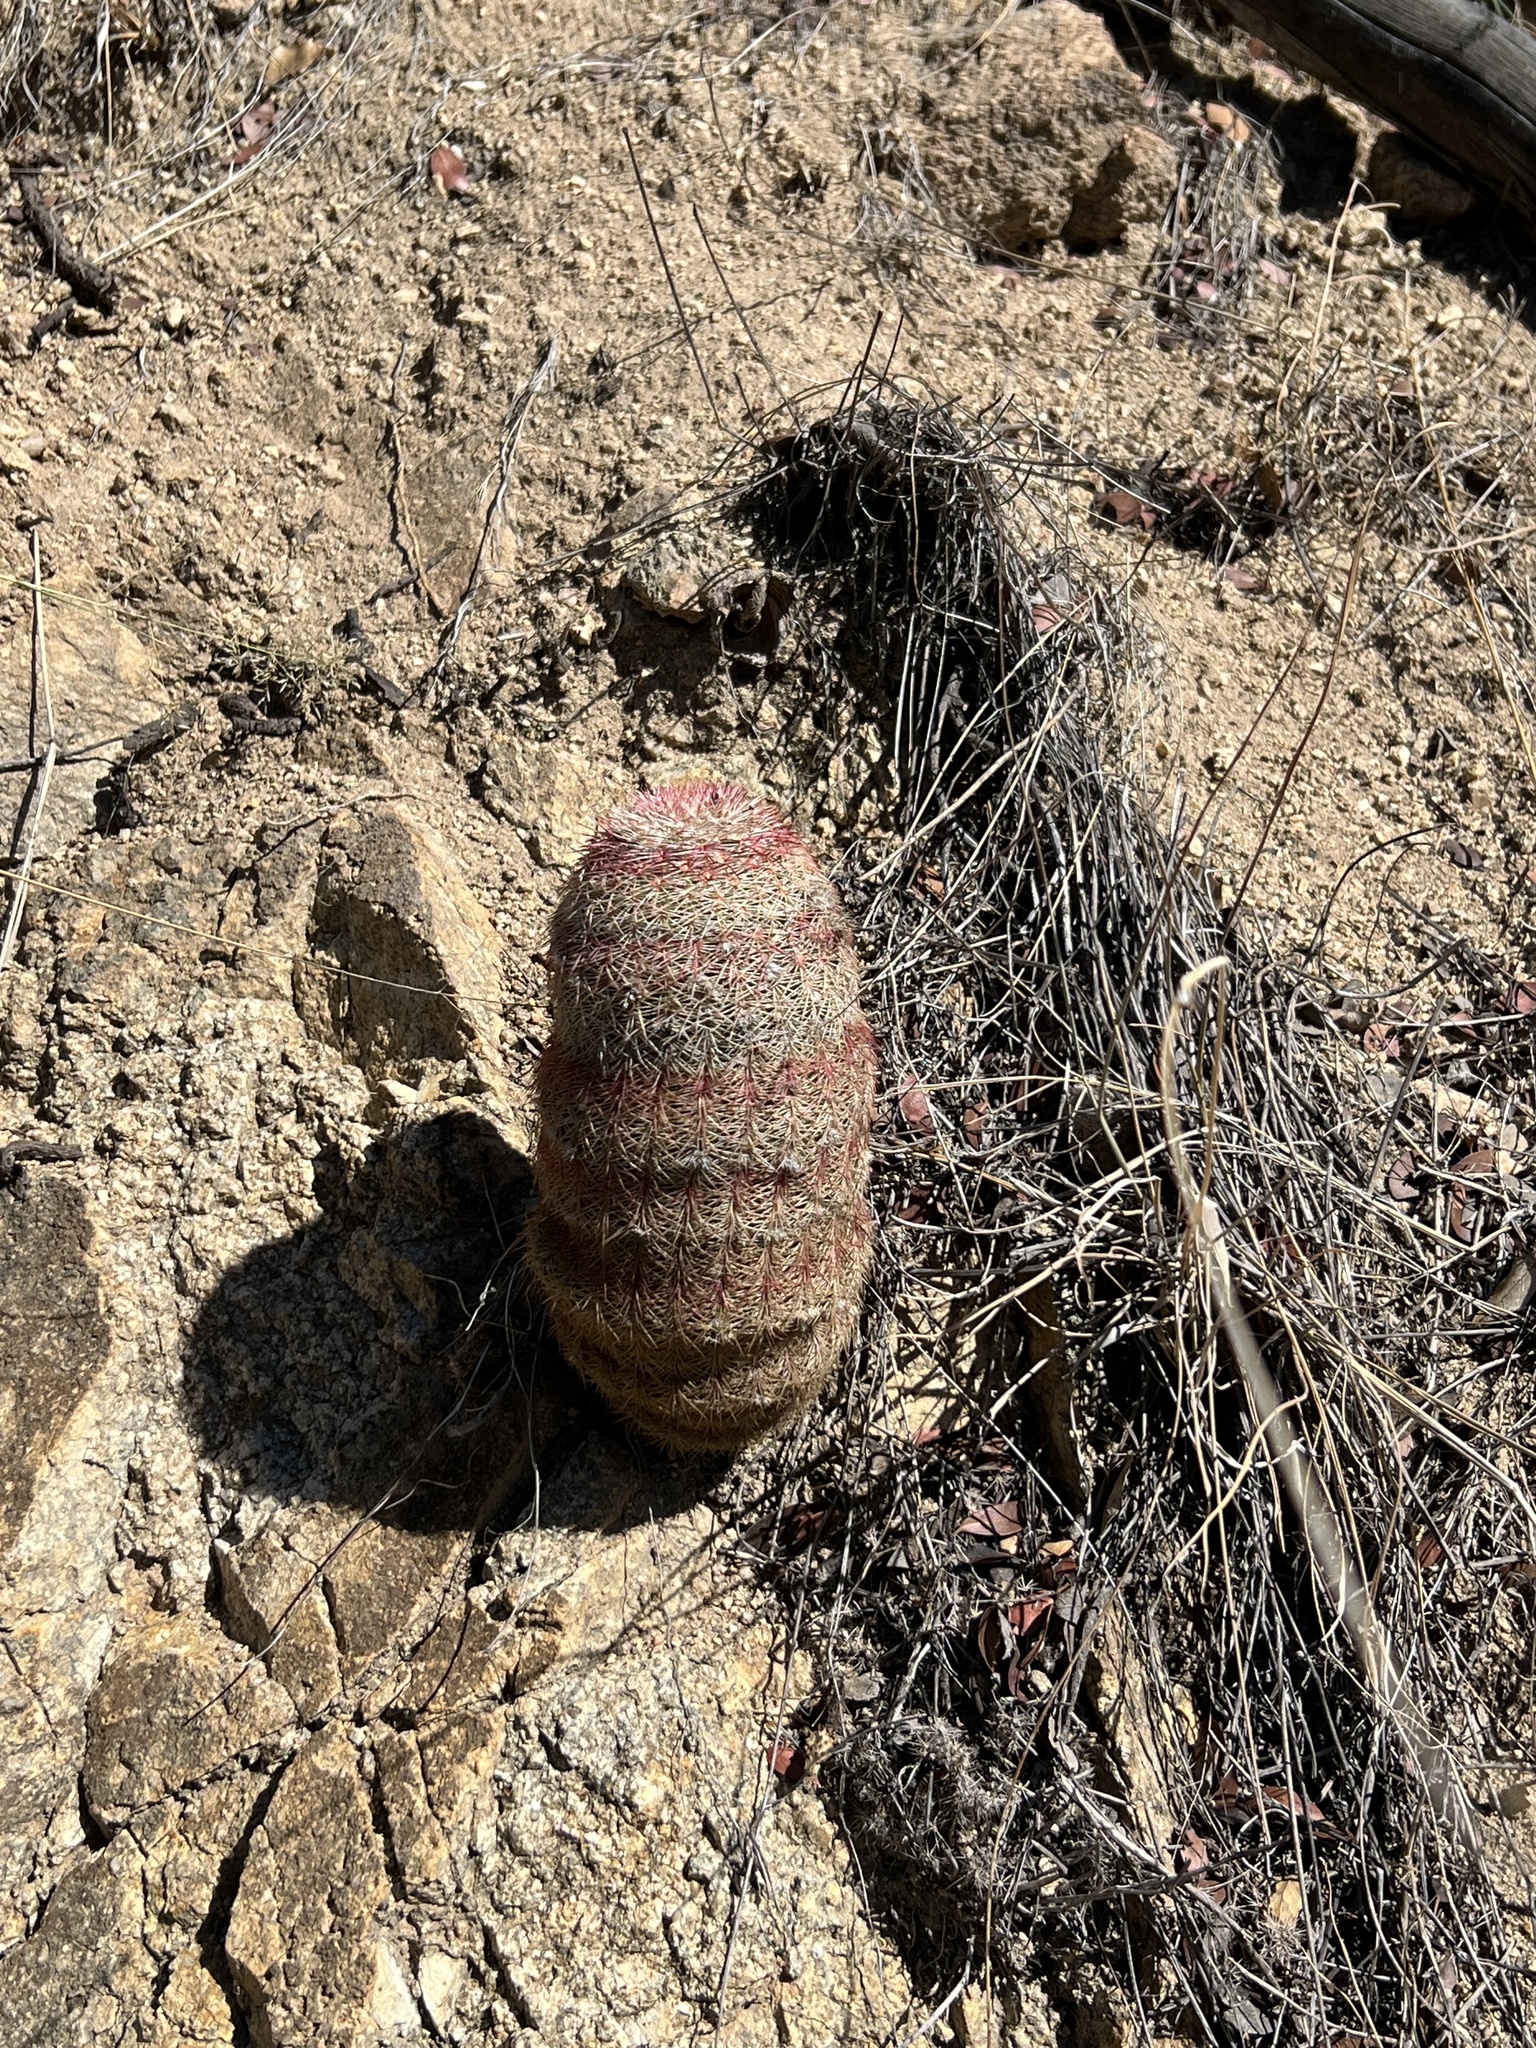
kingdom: Plantae
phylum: Tracheophyta
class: Magnoliopsida
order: Caryophyllales
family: Cactaceae
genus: Echinocereus
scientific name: Echinocereus rigidissimus
